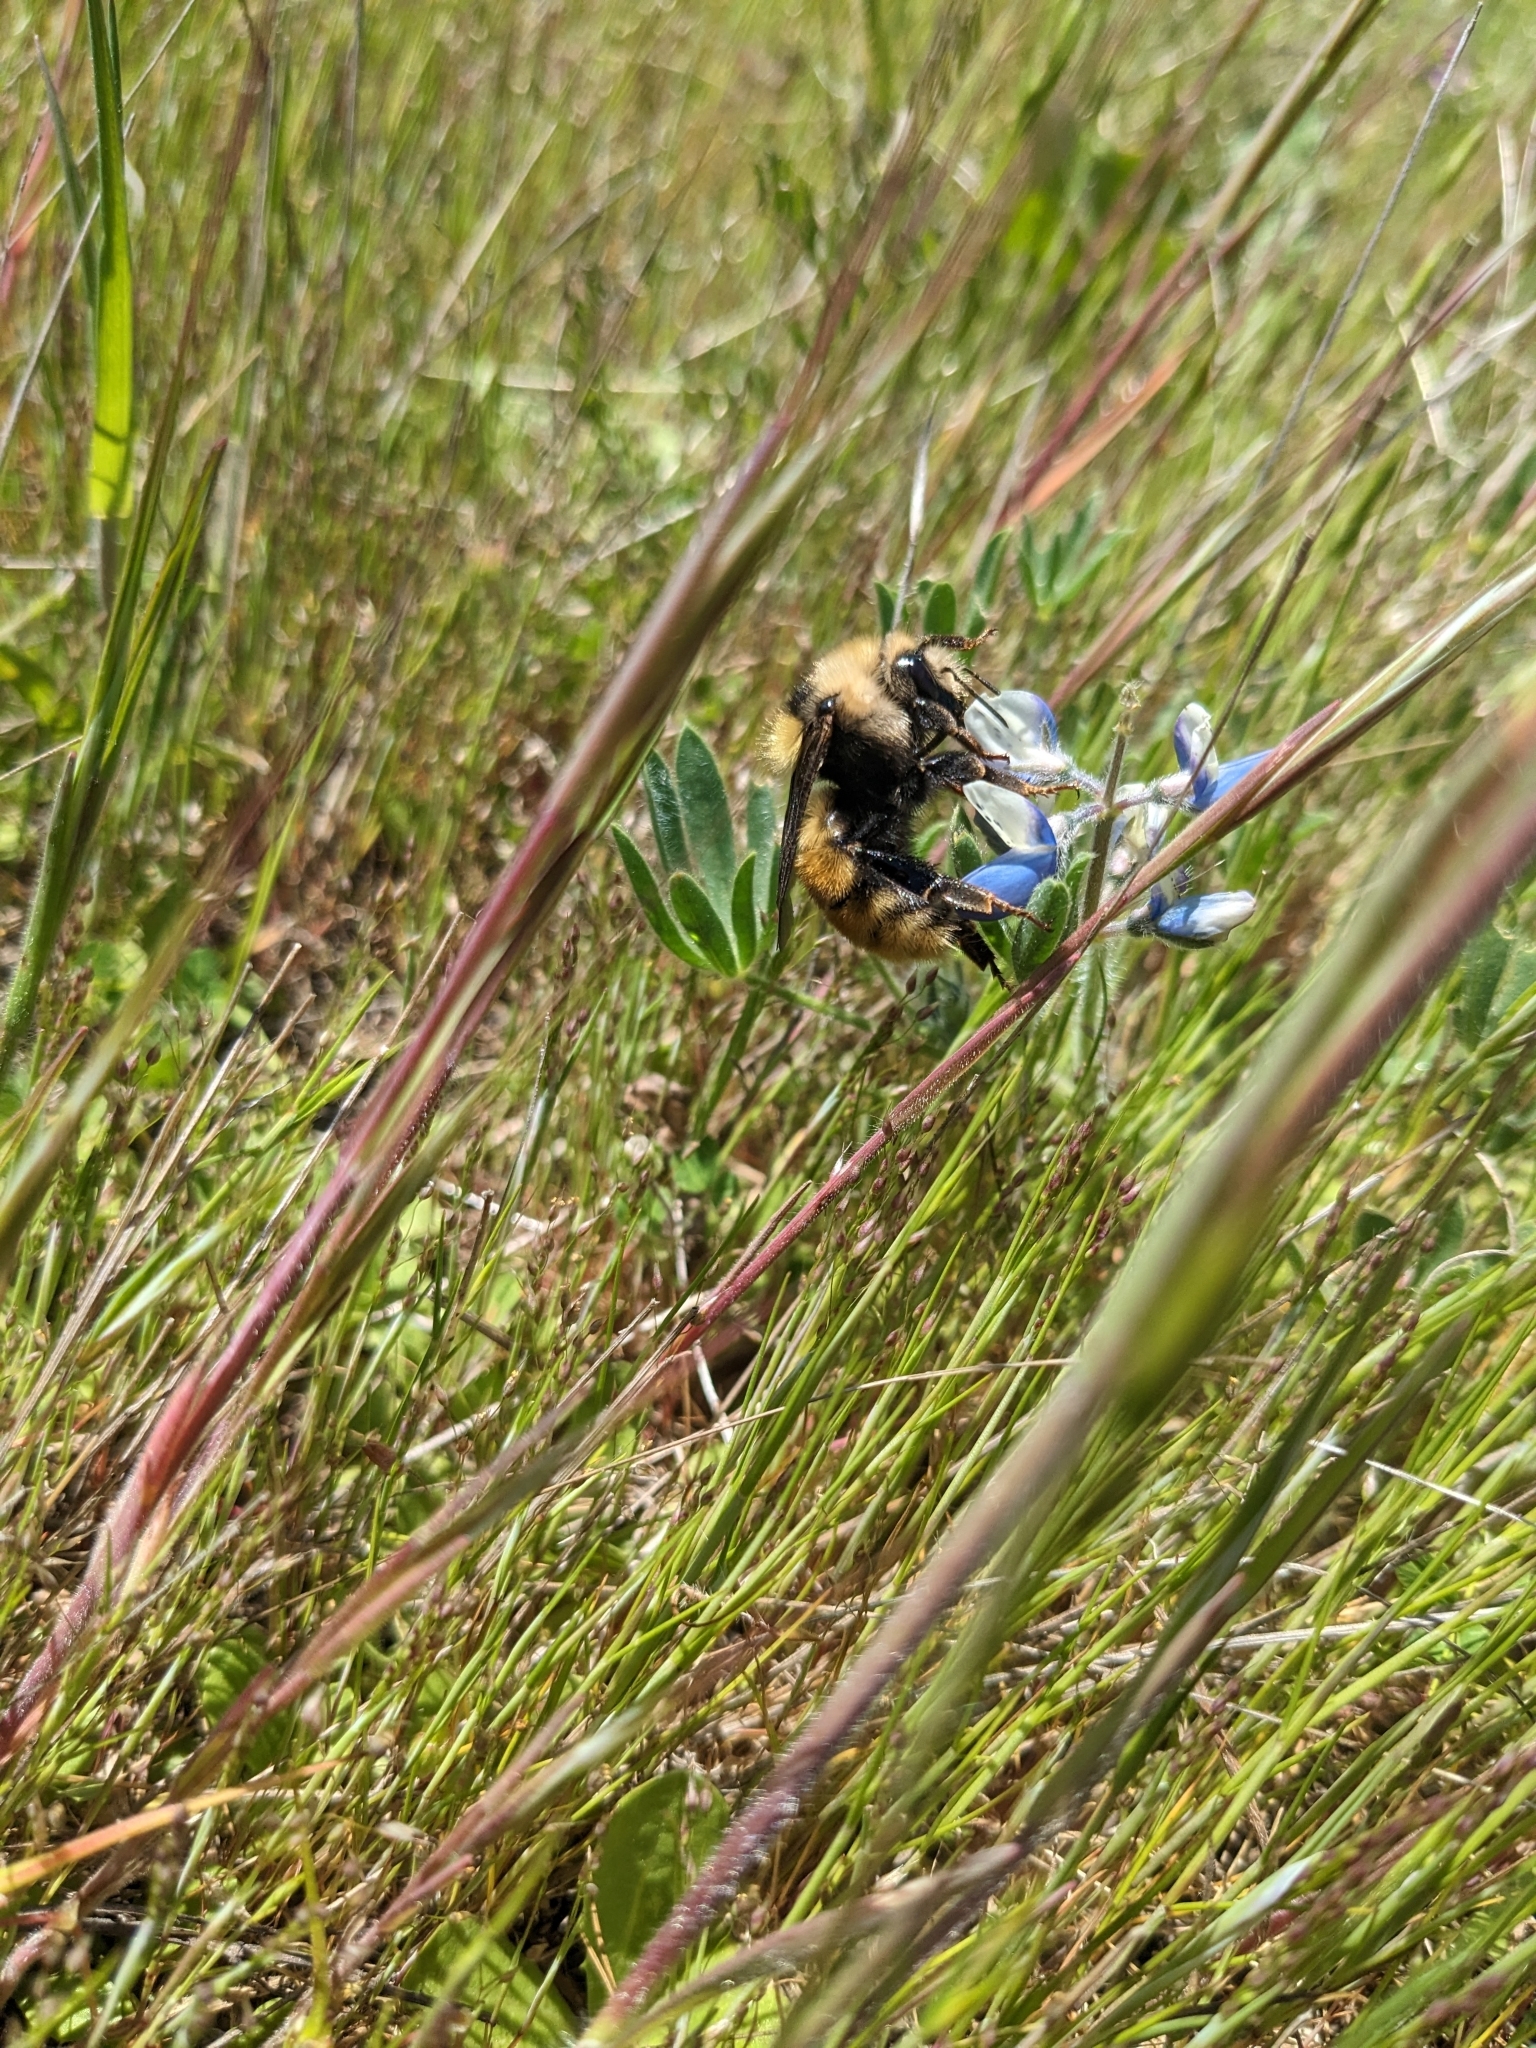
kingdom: Animalia
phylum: Arthropoda
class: Insecta
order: Hymenoptera
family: Apidae
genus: Bombus
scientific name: Bombus appositus
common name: White-shouldered bumble bee
